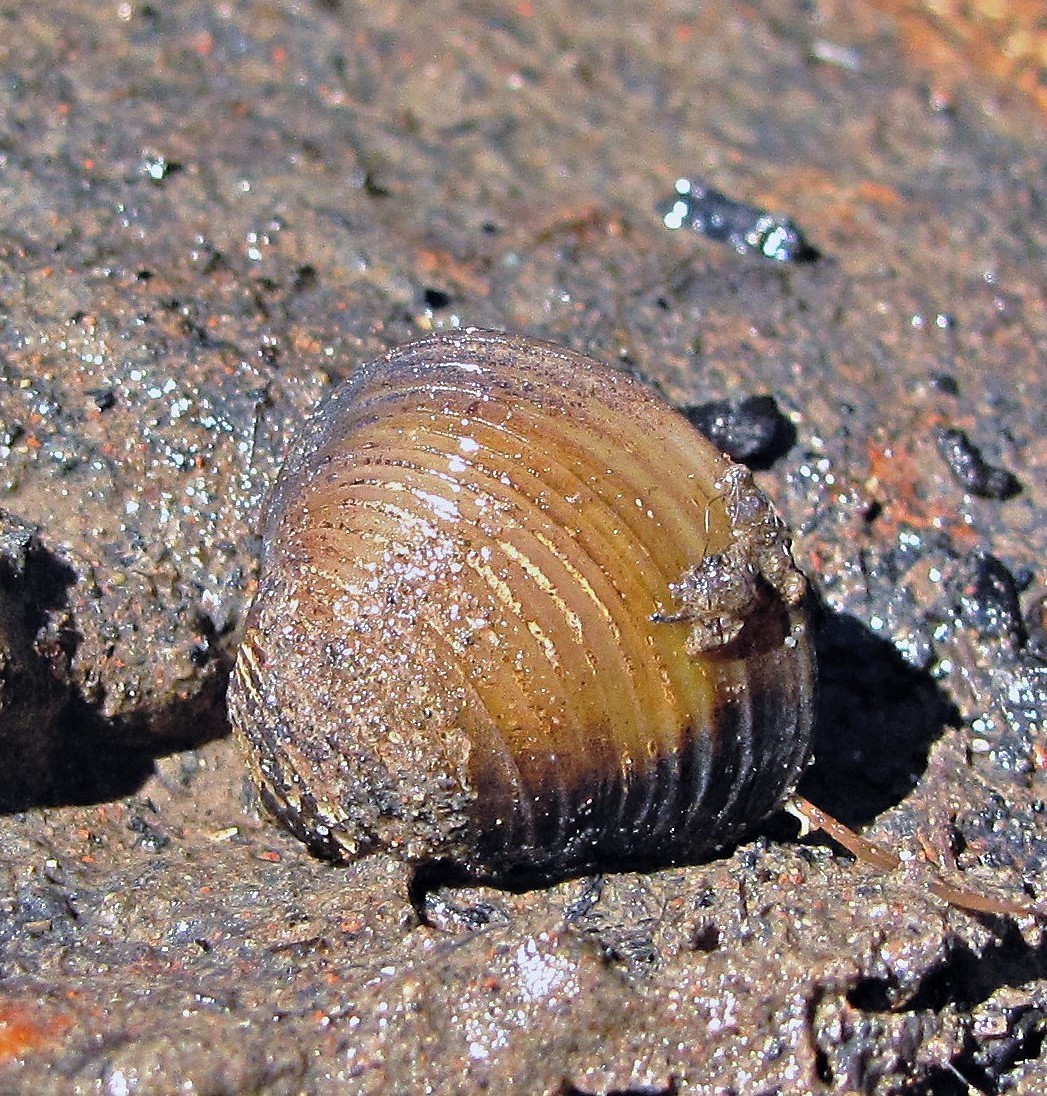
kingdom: Animalia
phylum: Mollusca
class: Bivalvia
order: Venerida
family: Cyrenidae
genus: Corbicula
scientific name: Corbicula fluminea
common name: Asian clam
